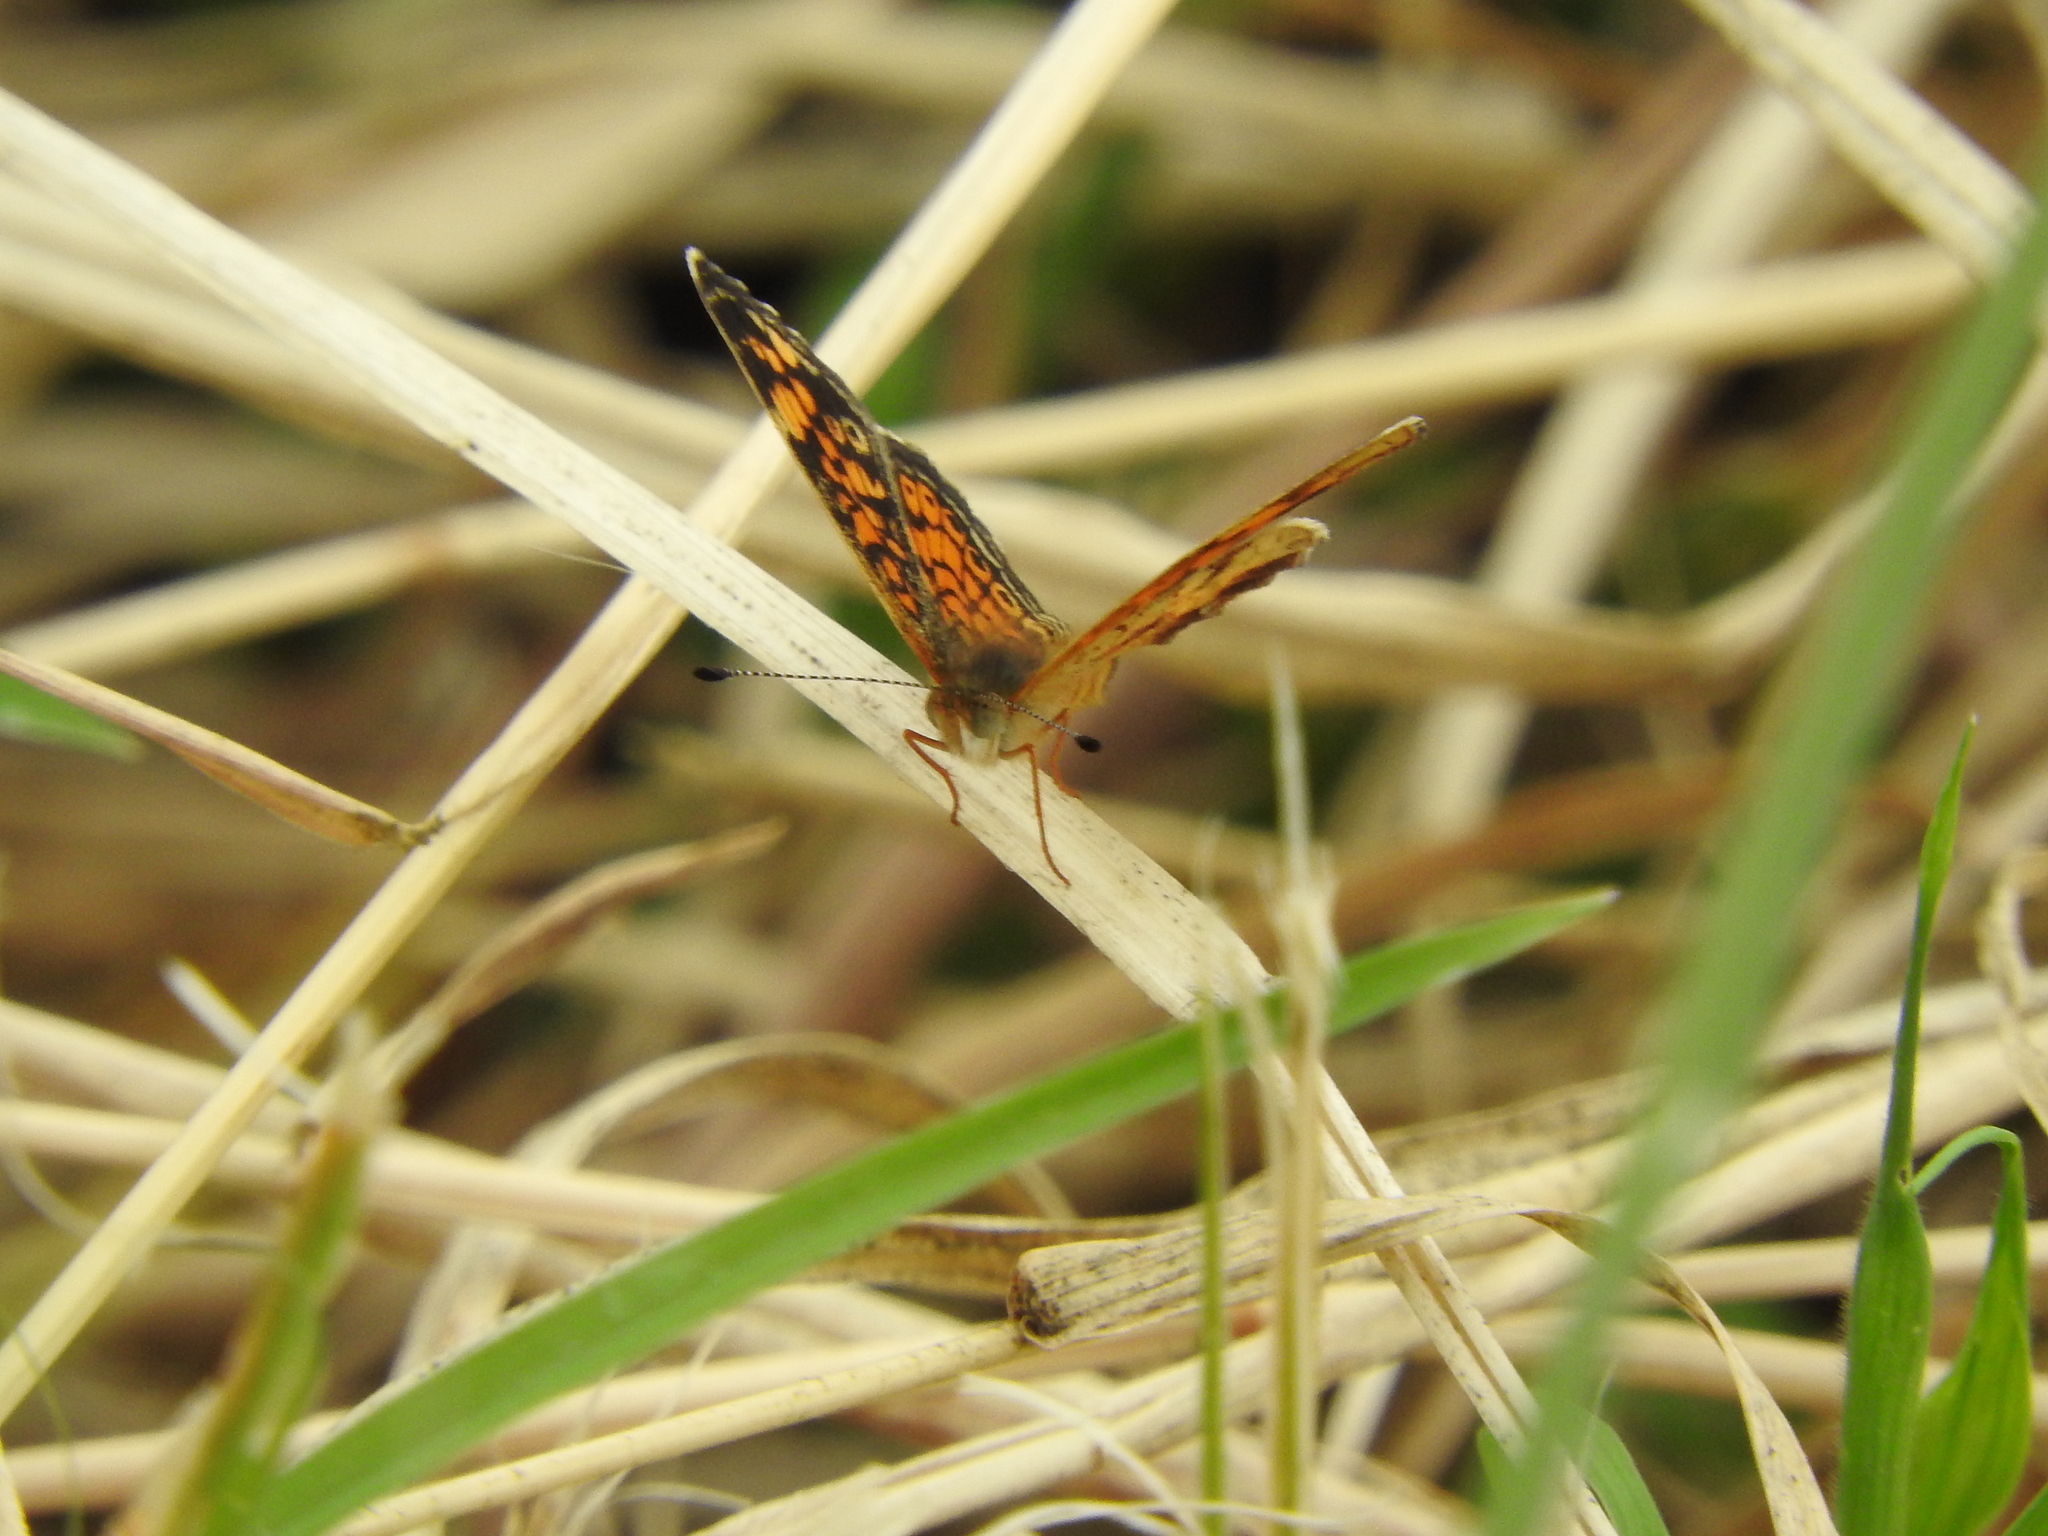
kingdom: Animalia
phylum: Arthropoda
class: Insecta
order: Lepidoptera
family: Nymphalidae
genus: Phyciodes
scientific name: Phyciodes tharos
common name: Pearl crescent
